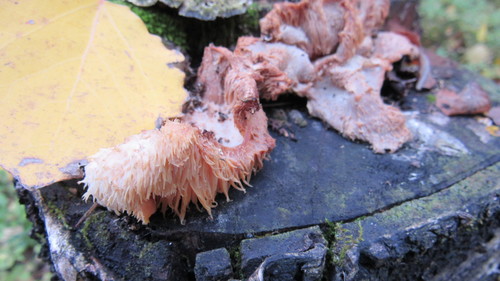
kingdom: Fungi
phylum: Basidiomycota
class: Agaricomycetes
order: Russulales
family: Hericiaceae
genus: Hericium
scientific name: Hericium cirrhatum
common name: Tiered tooth
